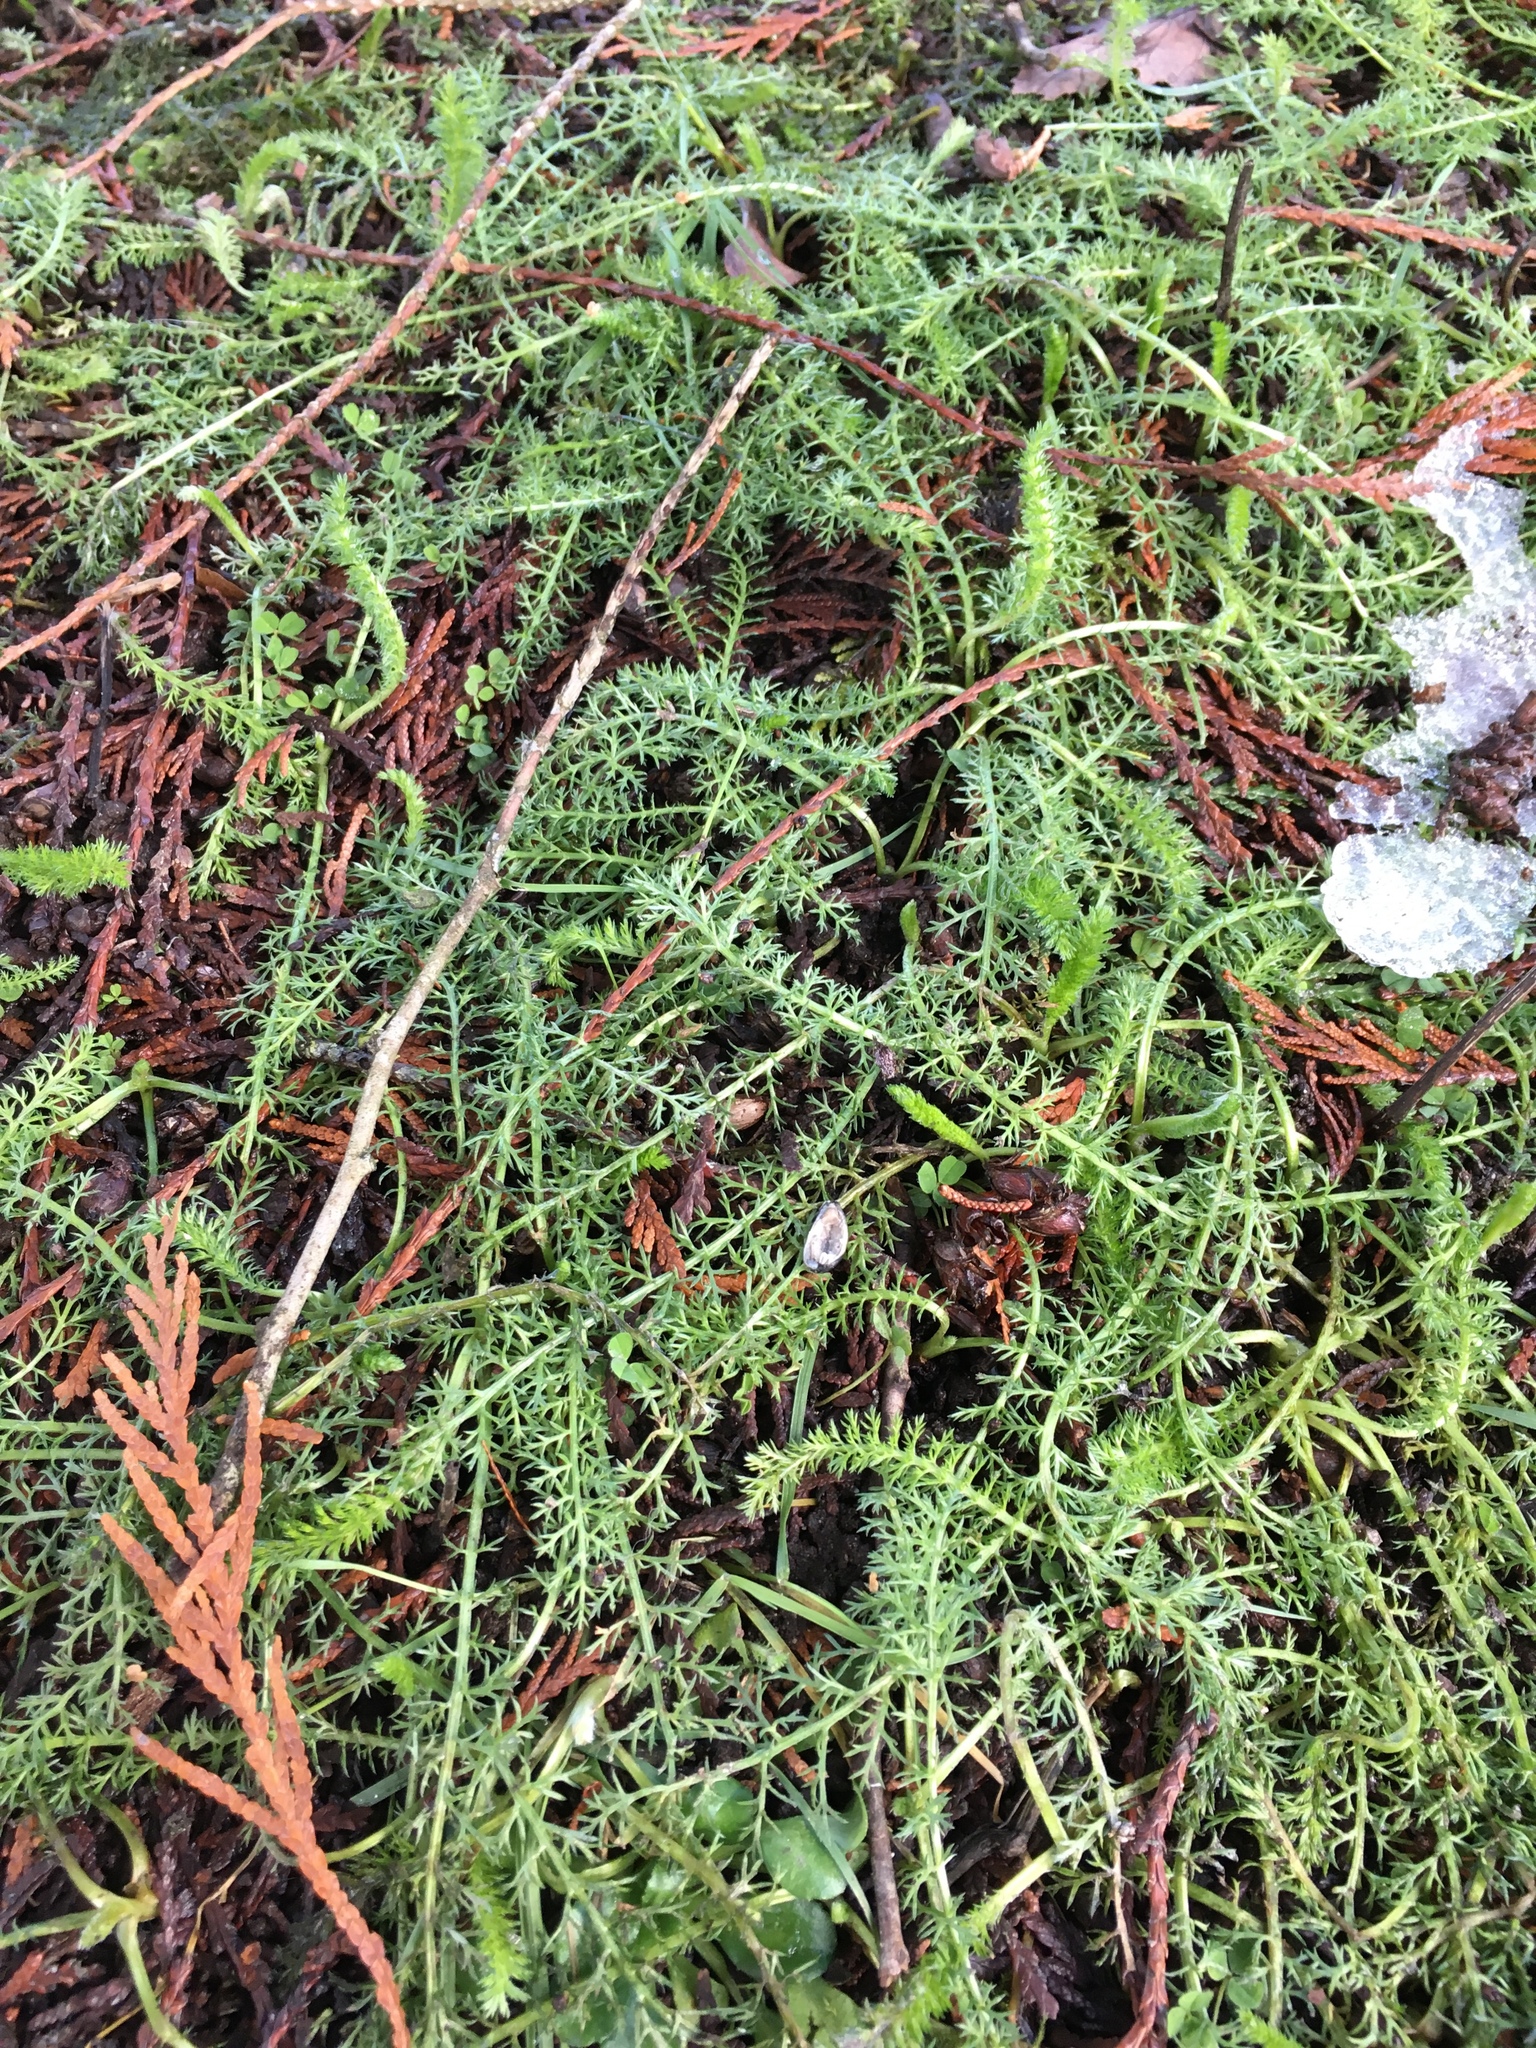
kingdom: Plantae
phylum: Tracheophyta
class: Magnoliopsida
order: Asterales
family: Asteraceae
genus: Achillea
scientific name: Achillea millefolium
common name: Yarrow
